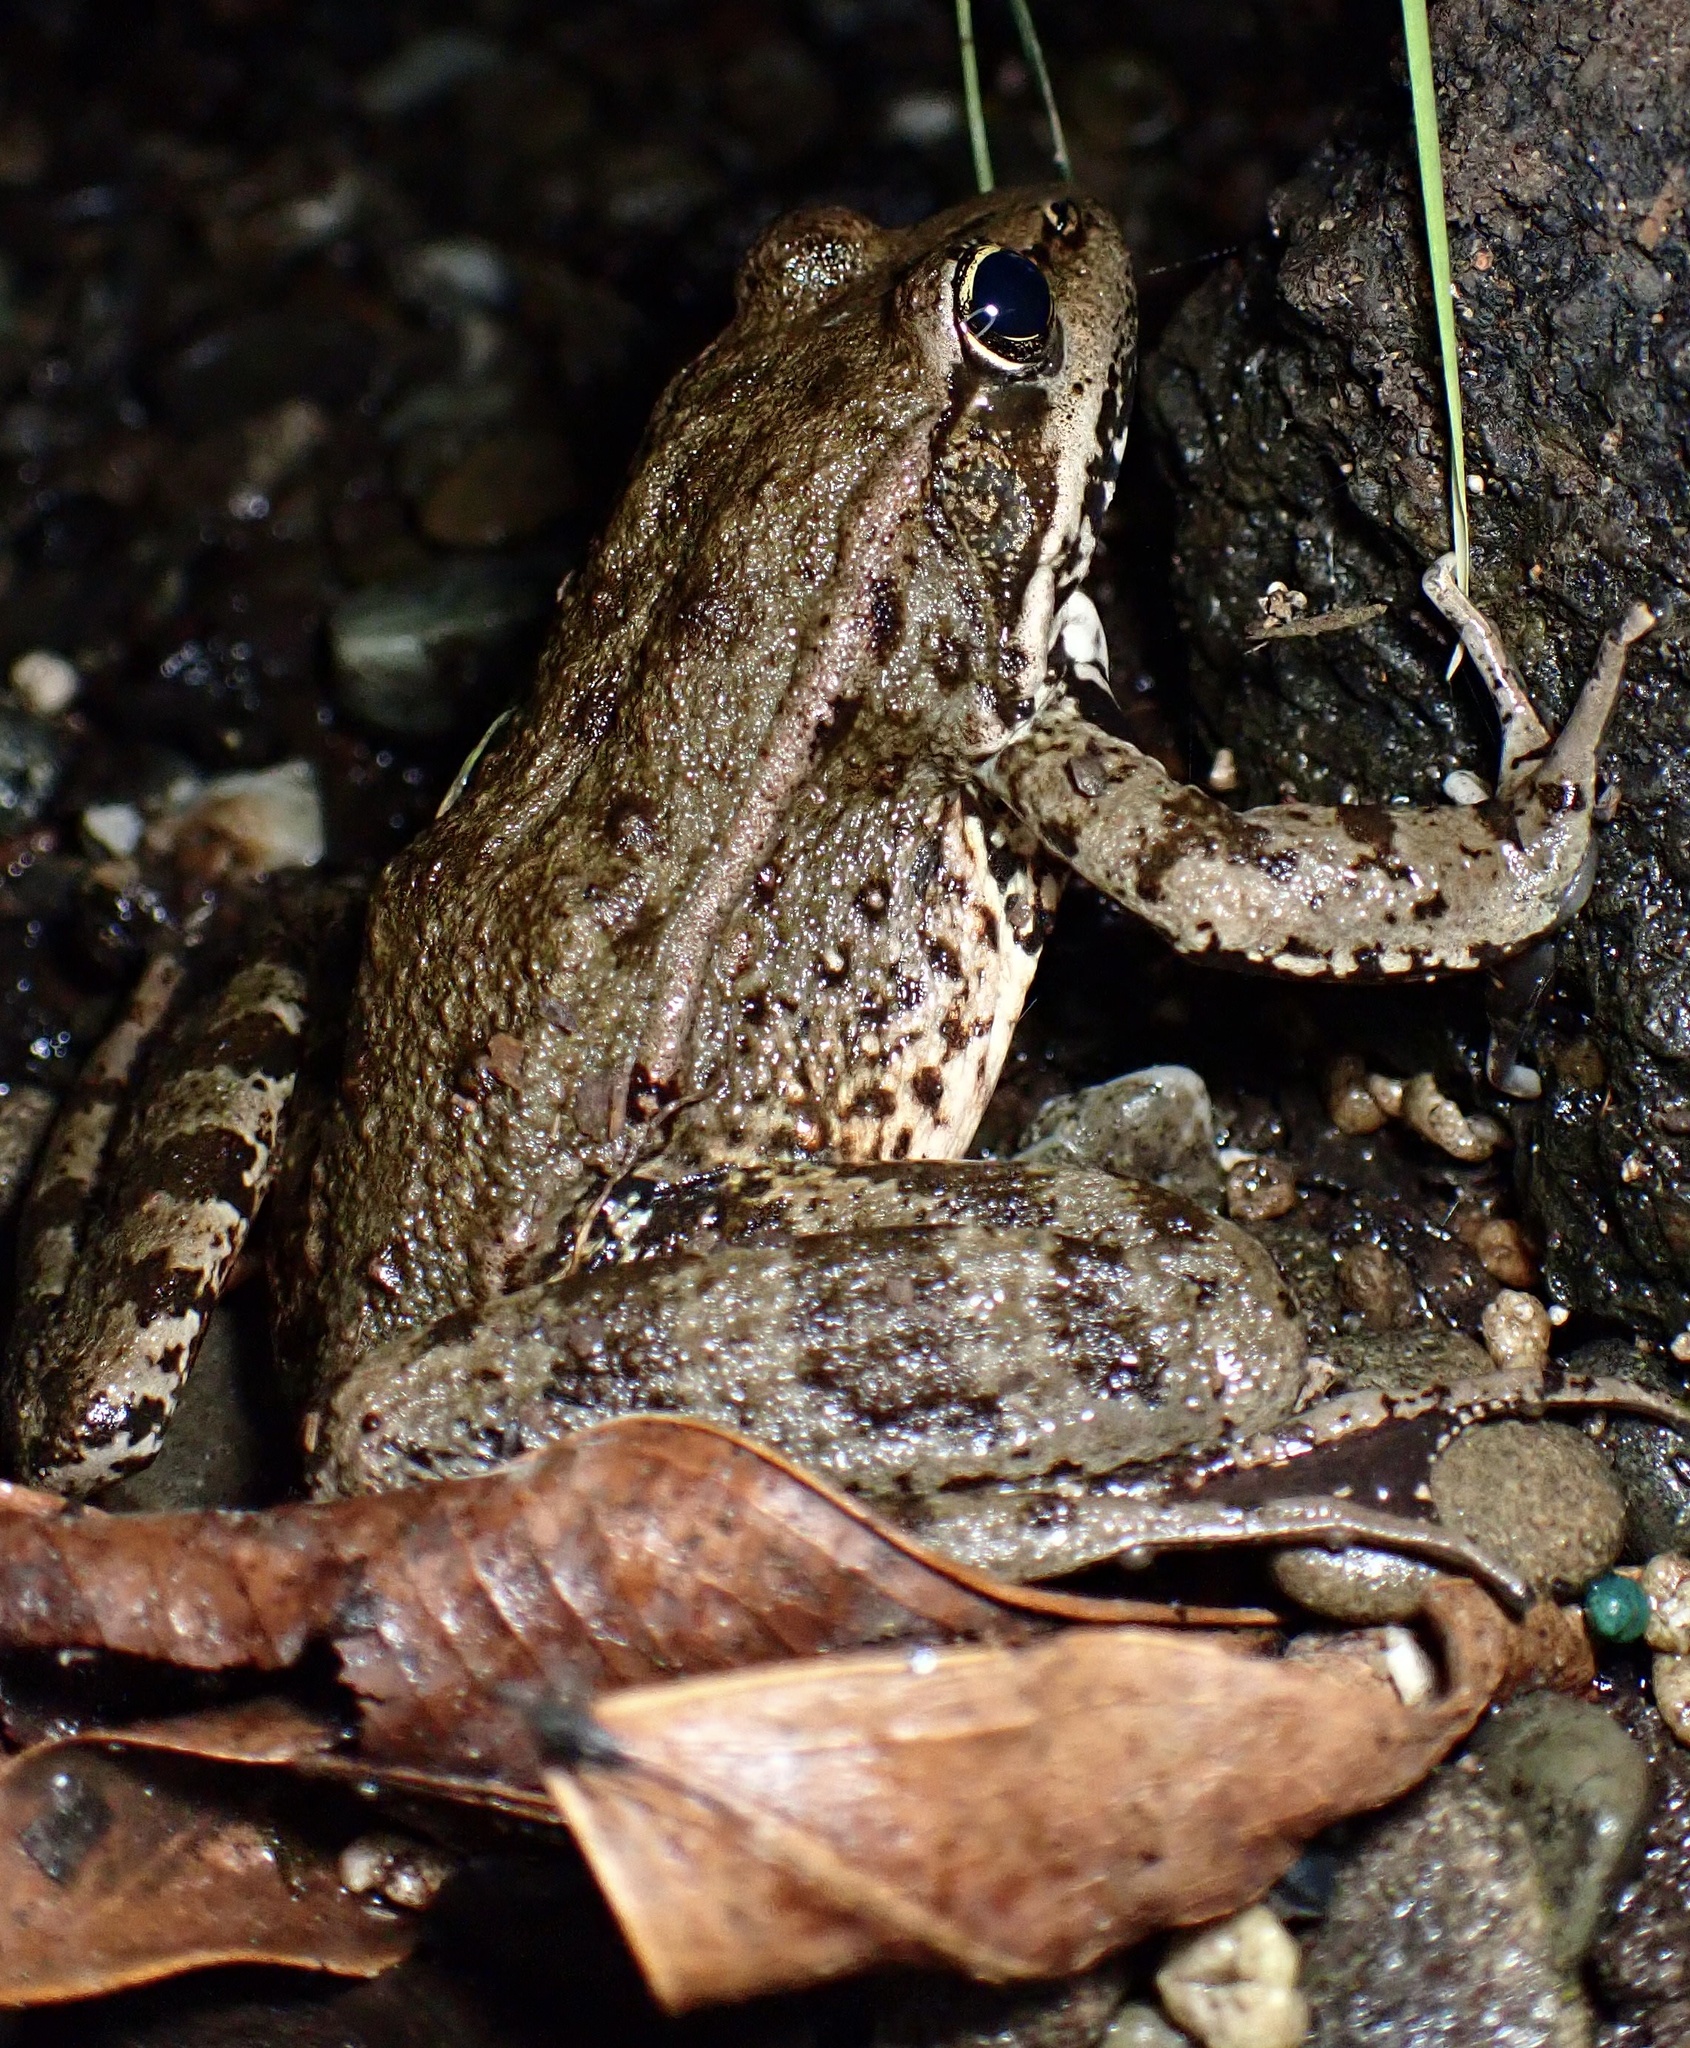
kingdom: Animalia
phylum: Chordata
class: Amphibia
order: Anura
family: Ranidae
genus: Rana
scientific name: Rana draytonii
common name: California red-legged frog
